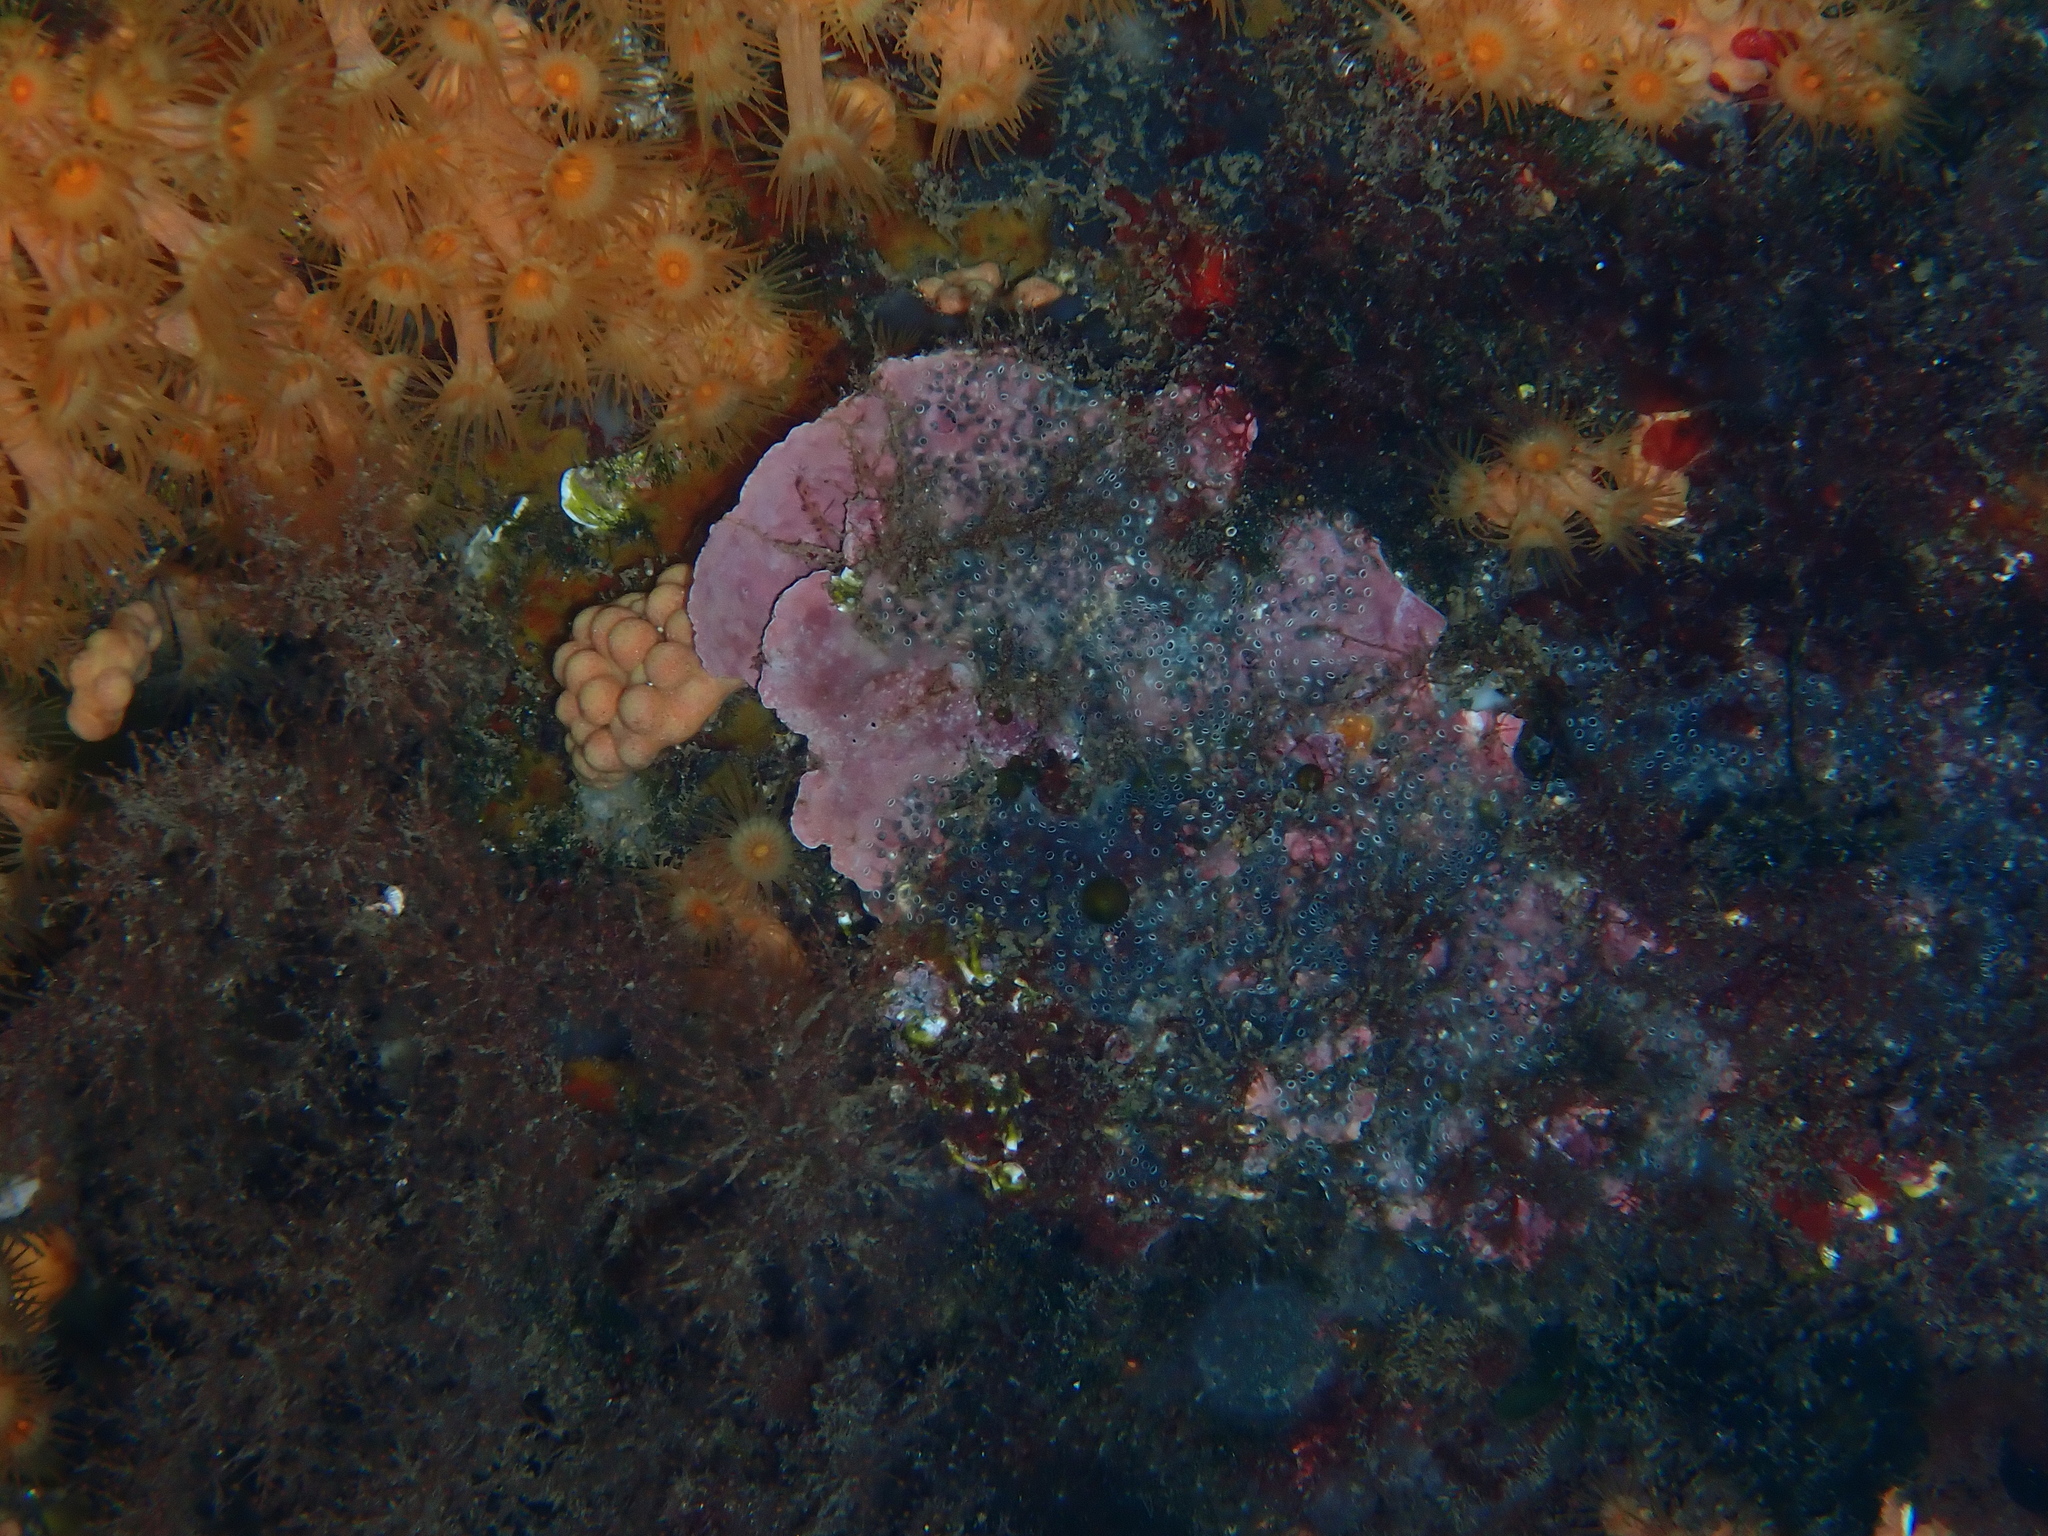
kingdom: Animalia
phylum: Chordata
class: Ascidiacea
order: Aplousobranchia
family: Didemnidae
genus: Diplosoma
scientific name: Diplosoma spongiforme
